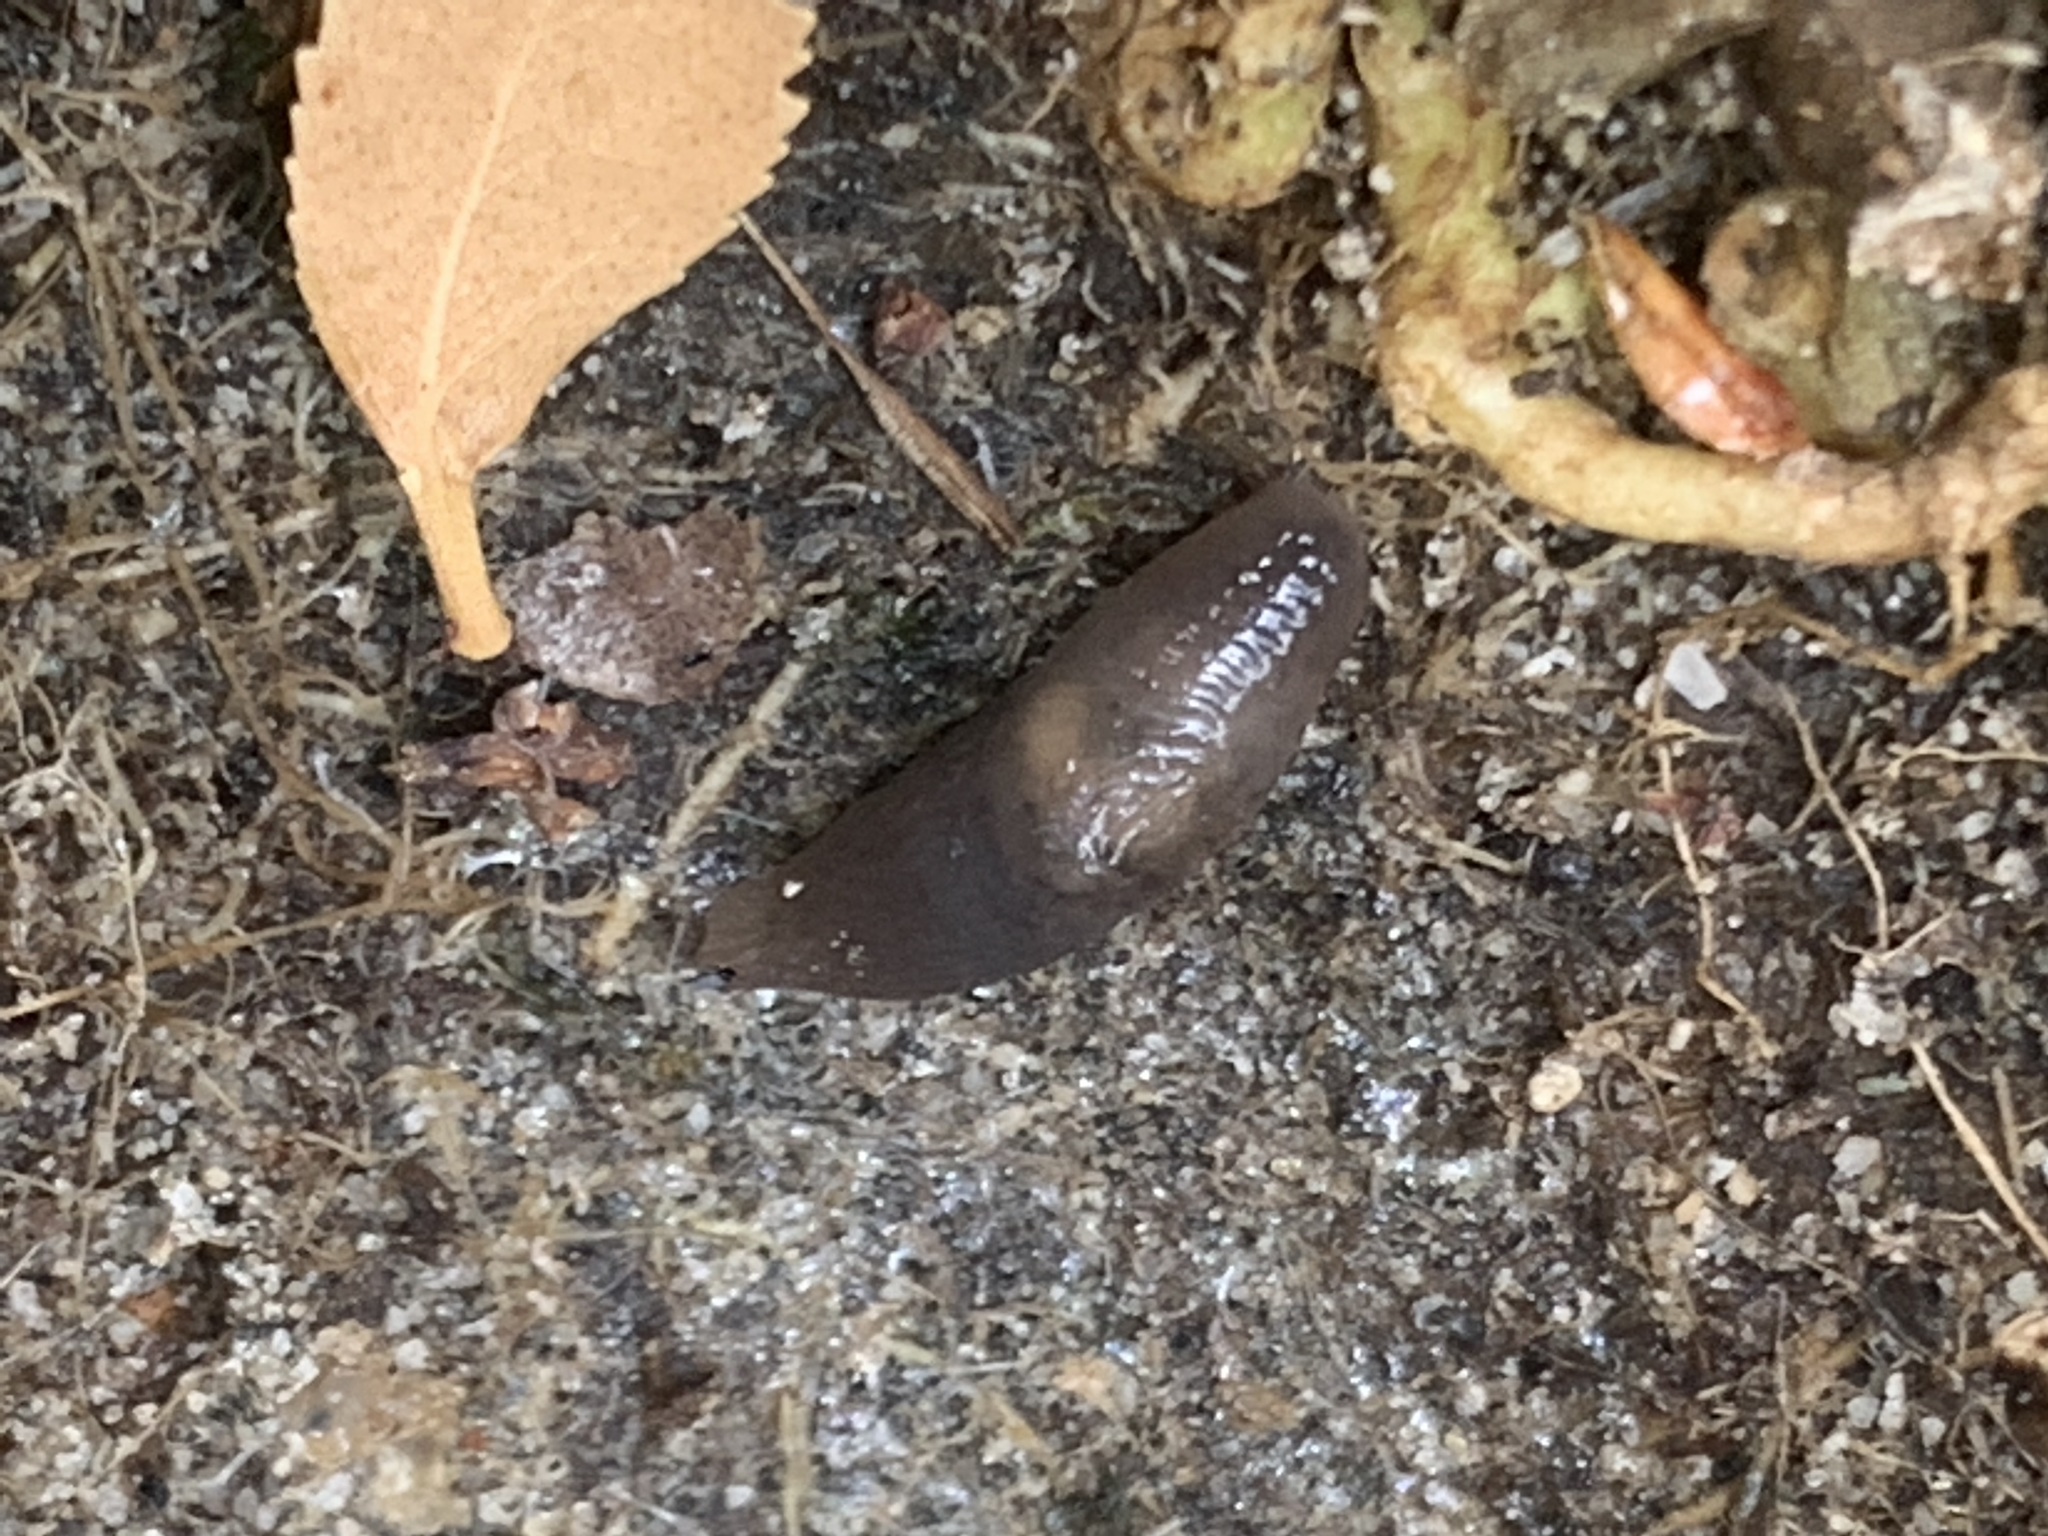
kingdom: Animalia
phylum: Mollusca
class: Gastropoda
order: Stylommatophora
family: Agriolimacidae
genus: Deroceras
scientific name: Deroceras
